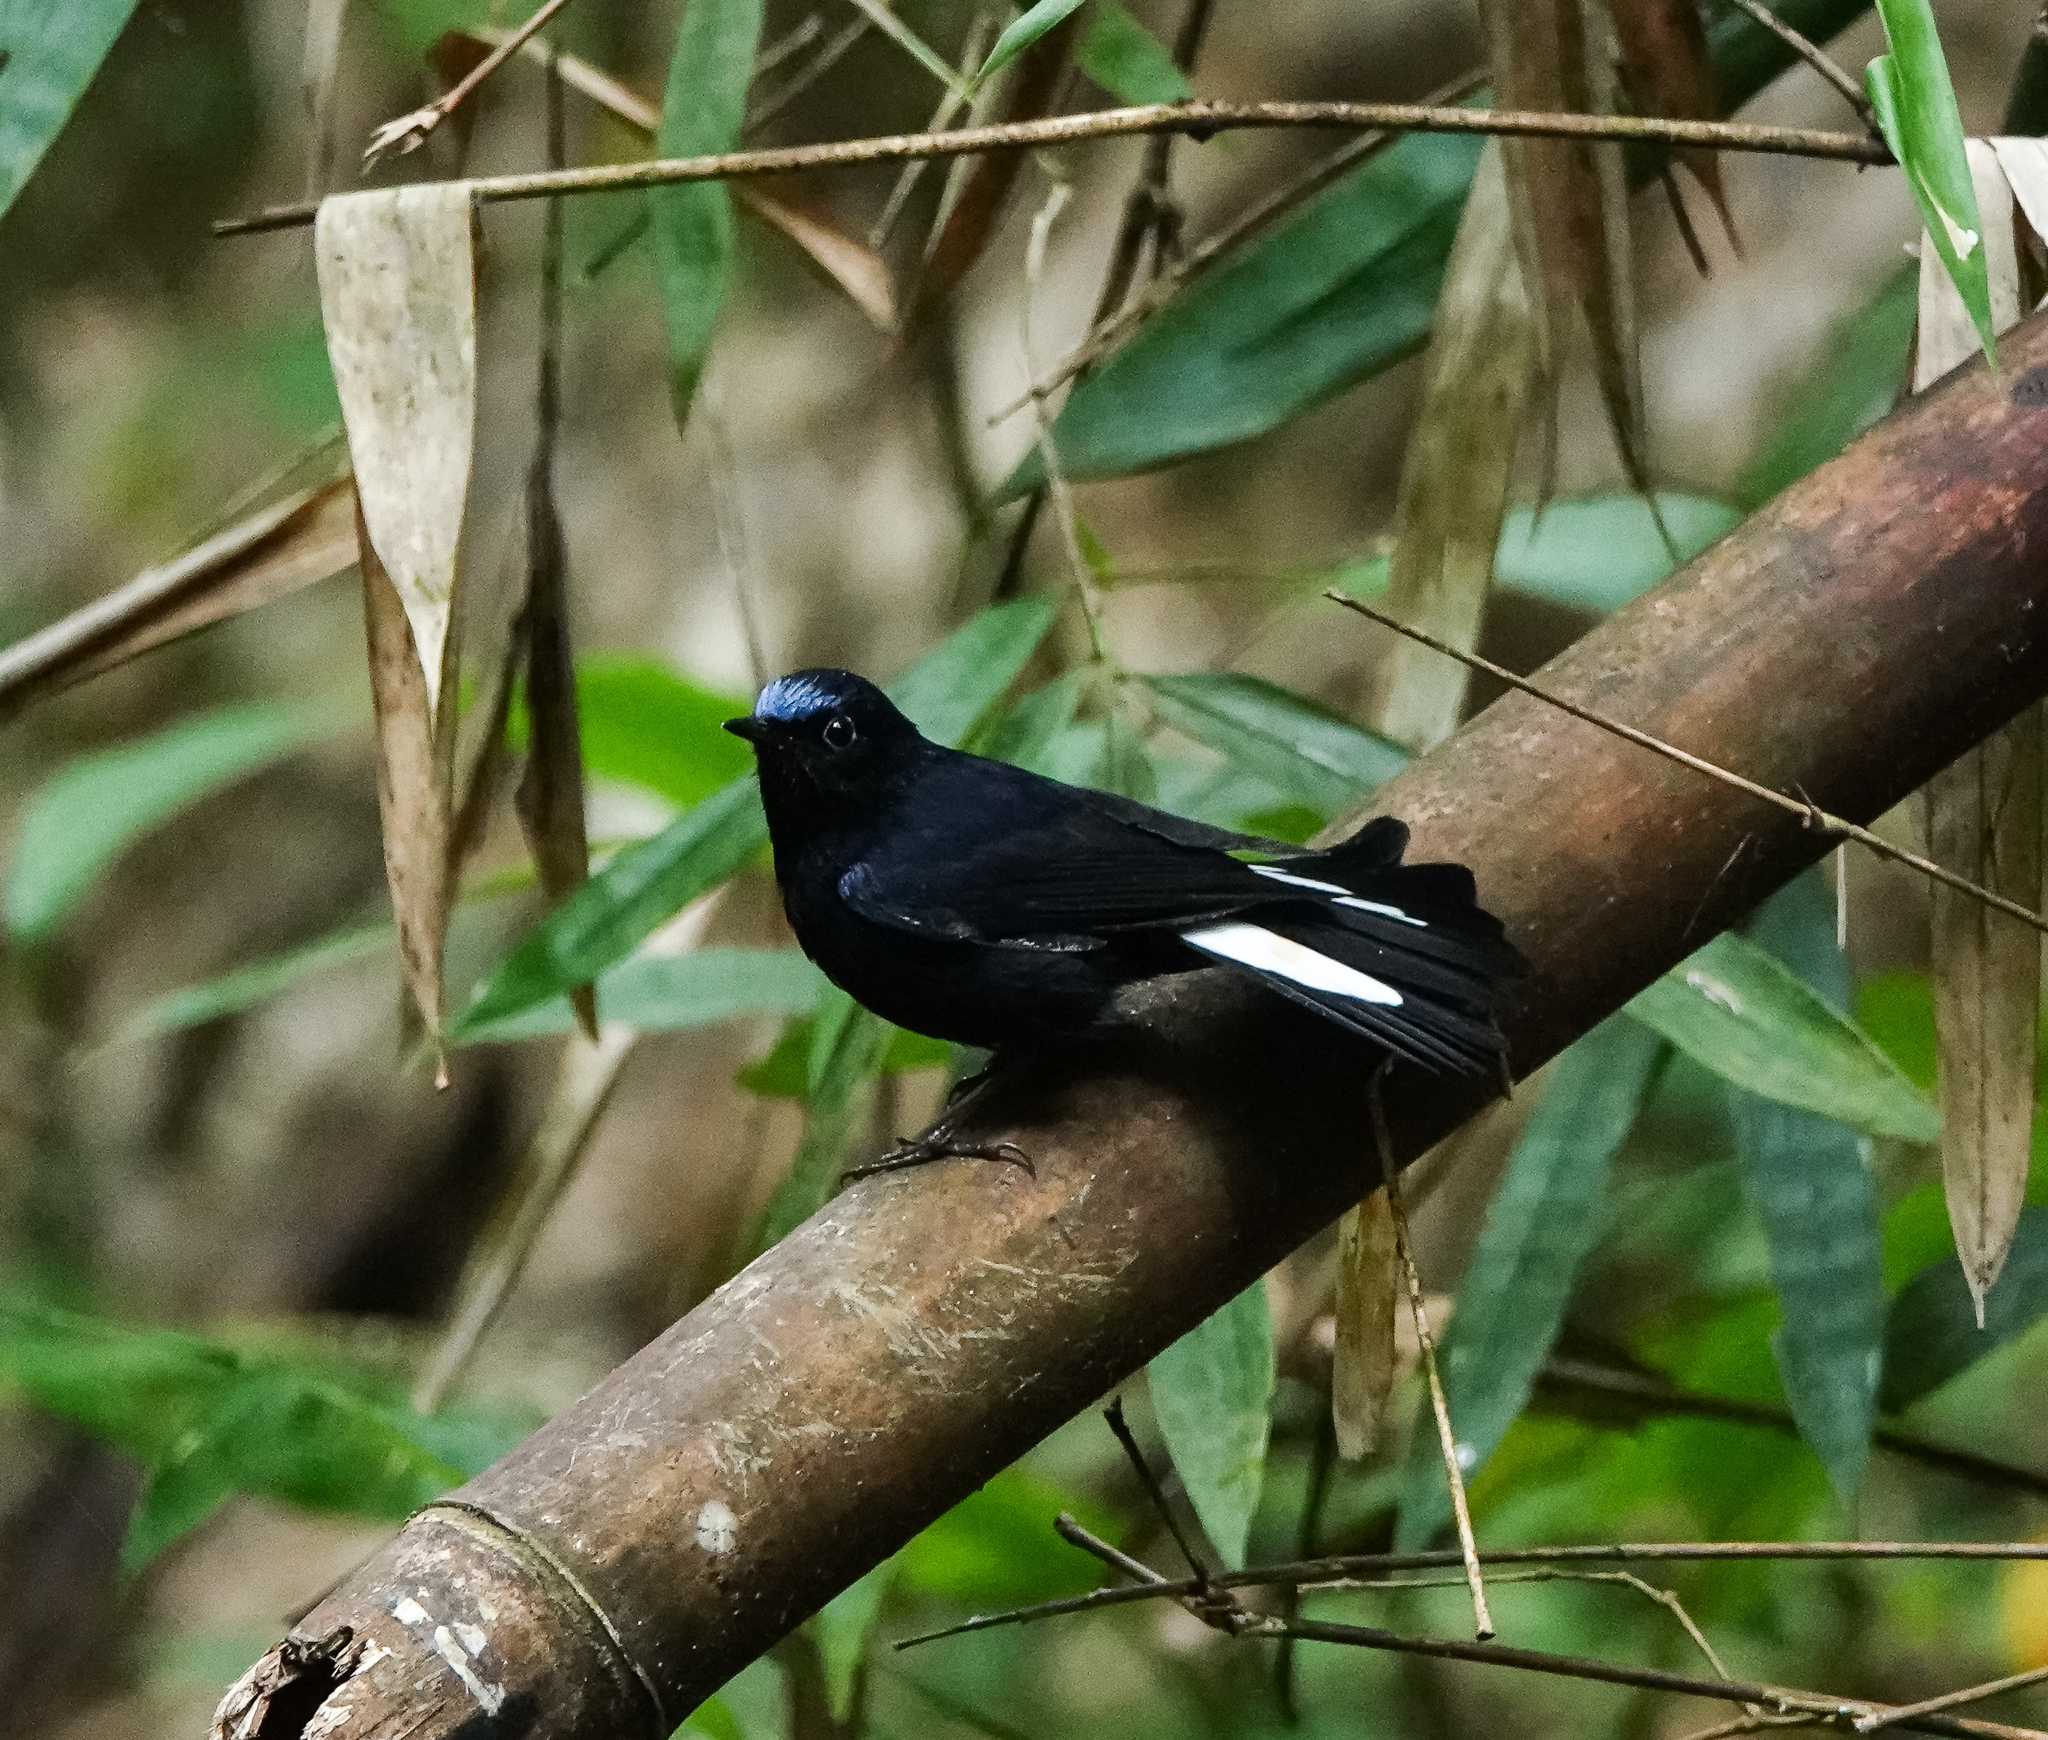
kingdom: Animalia
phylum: Chordata
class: Aves
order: Passeriformes
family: Muscicapidae
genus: Myiomela
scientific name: Myiomela leucura
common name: White-tailed robin
